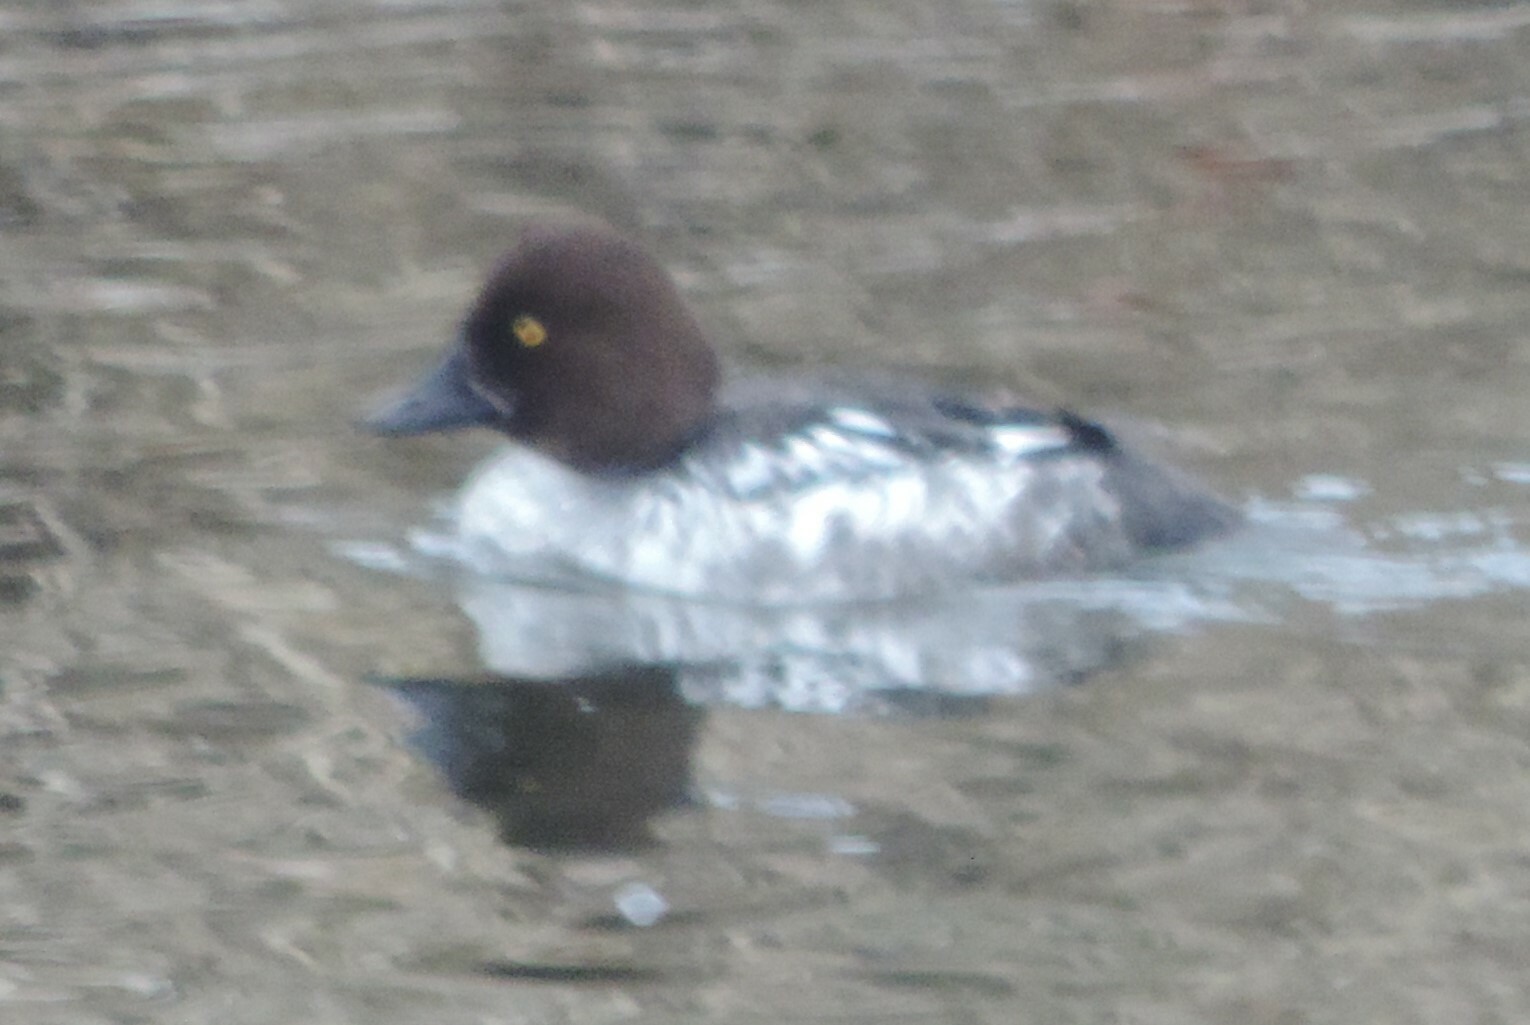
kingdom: Animalia
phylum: Chordata
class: Aves
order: Anseriformes
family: Anatidae
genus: Bucephala
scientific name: Bucephala clangula
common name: Common goldeneye
